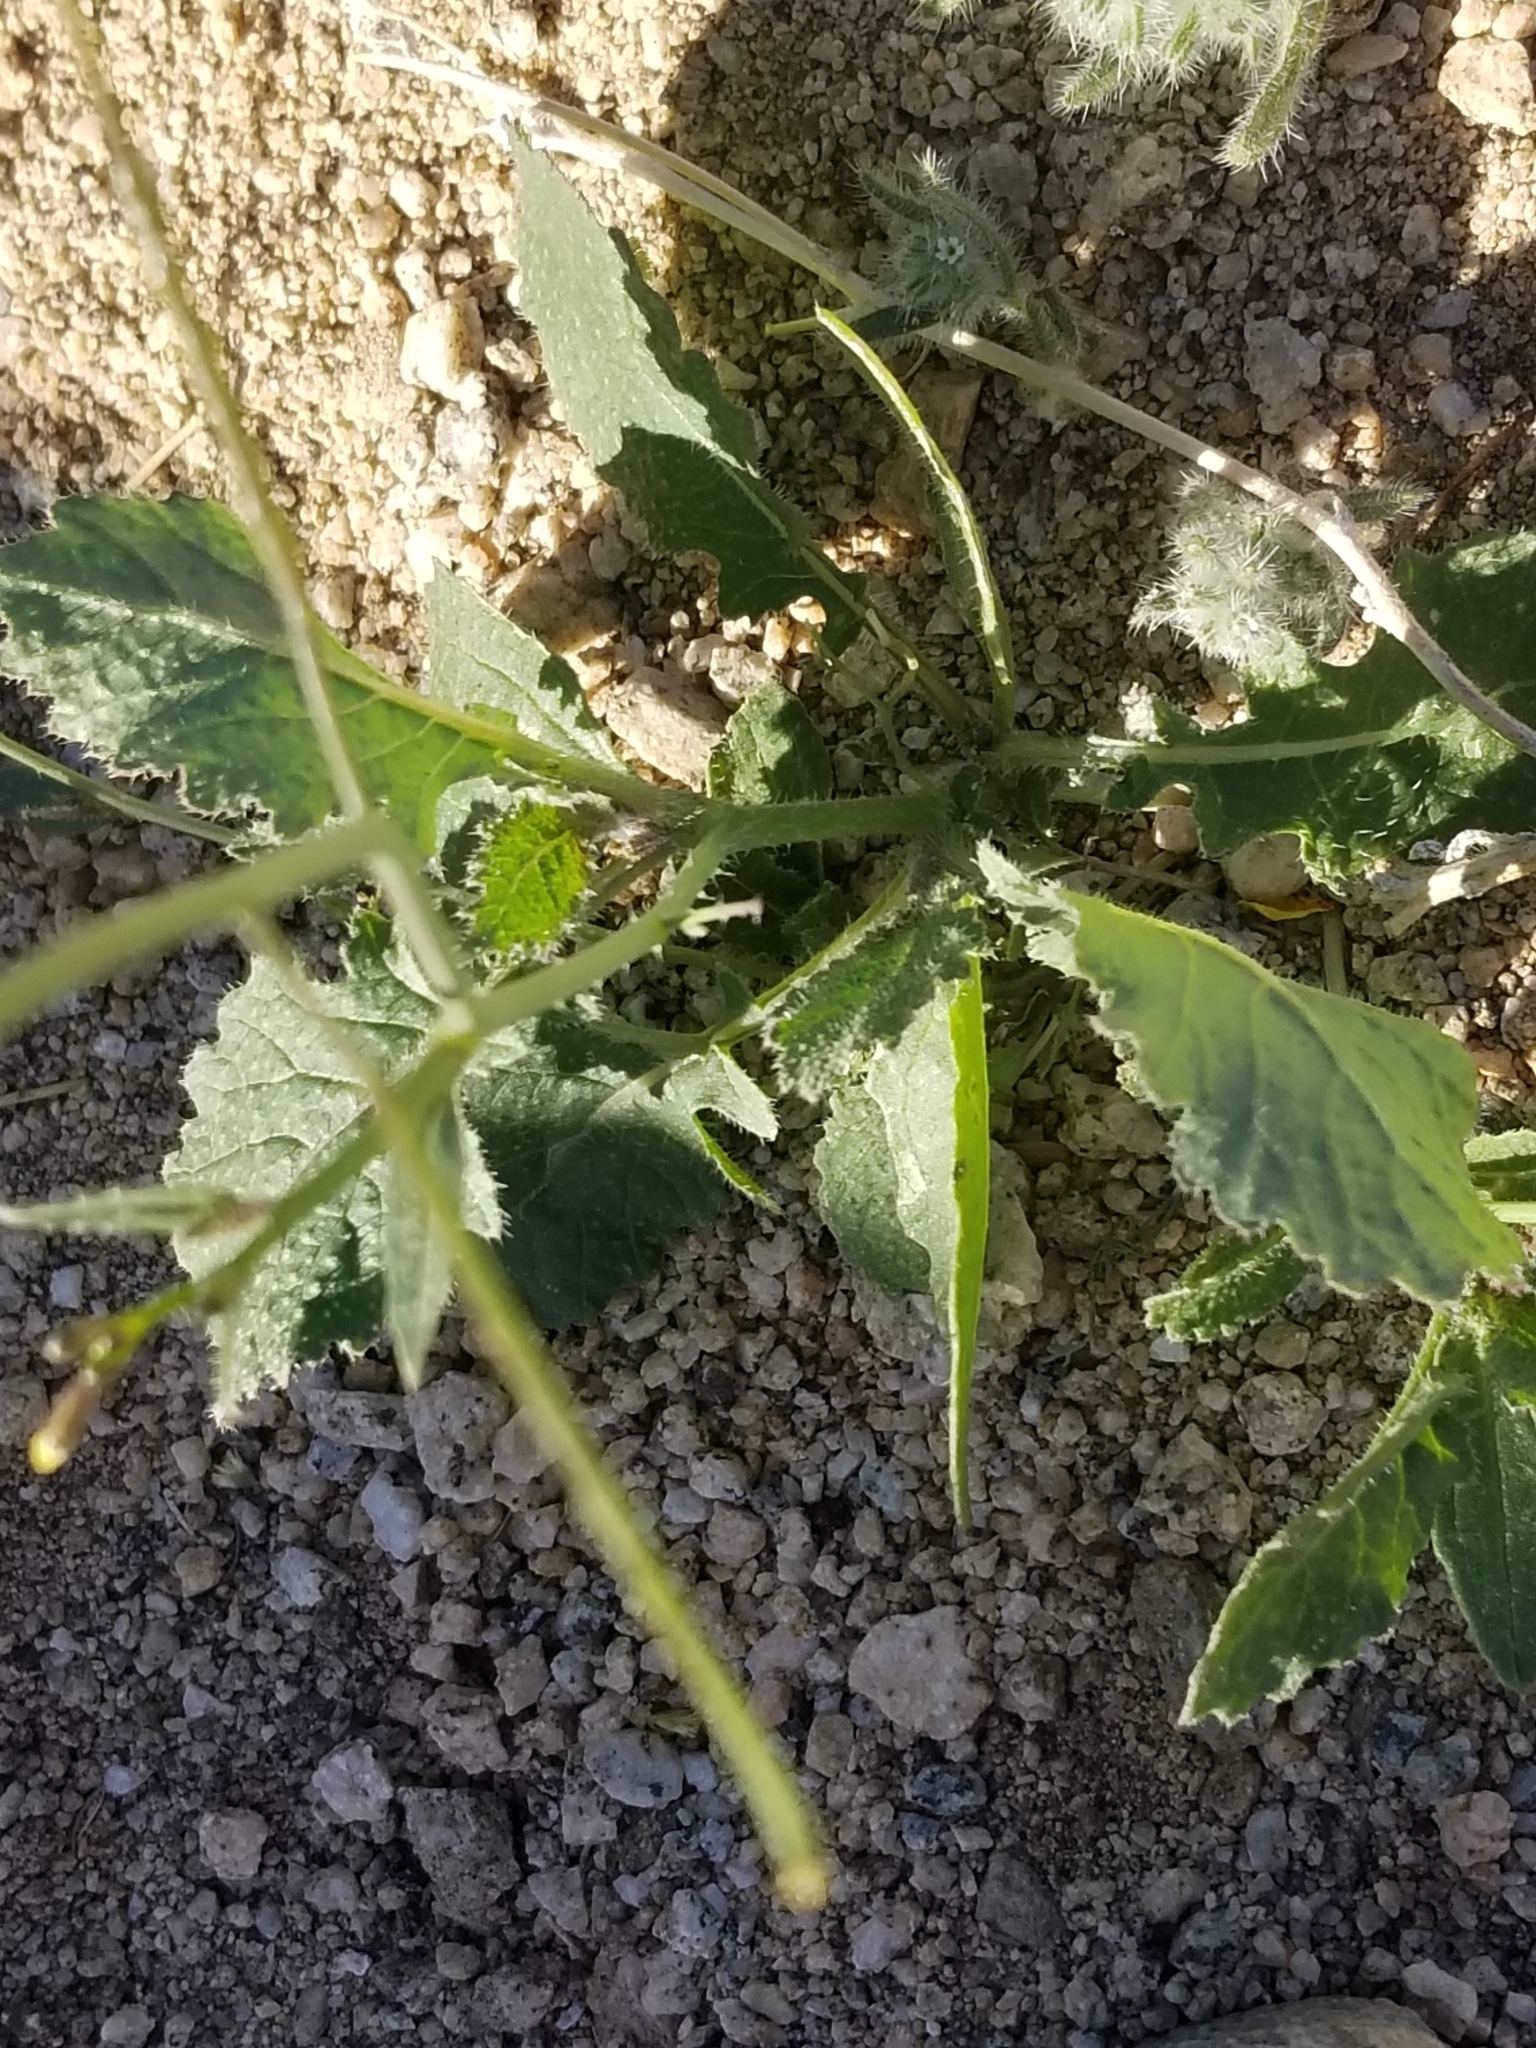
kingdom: Plantae
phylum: Tracheophyta
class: Magnoliopsida
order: Brassicales
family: Brassicaceae
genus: Brassica
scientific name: Brassica tournefortii
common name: Pale cabbage
